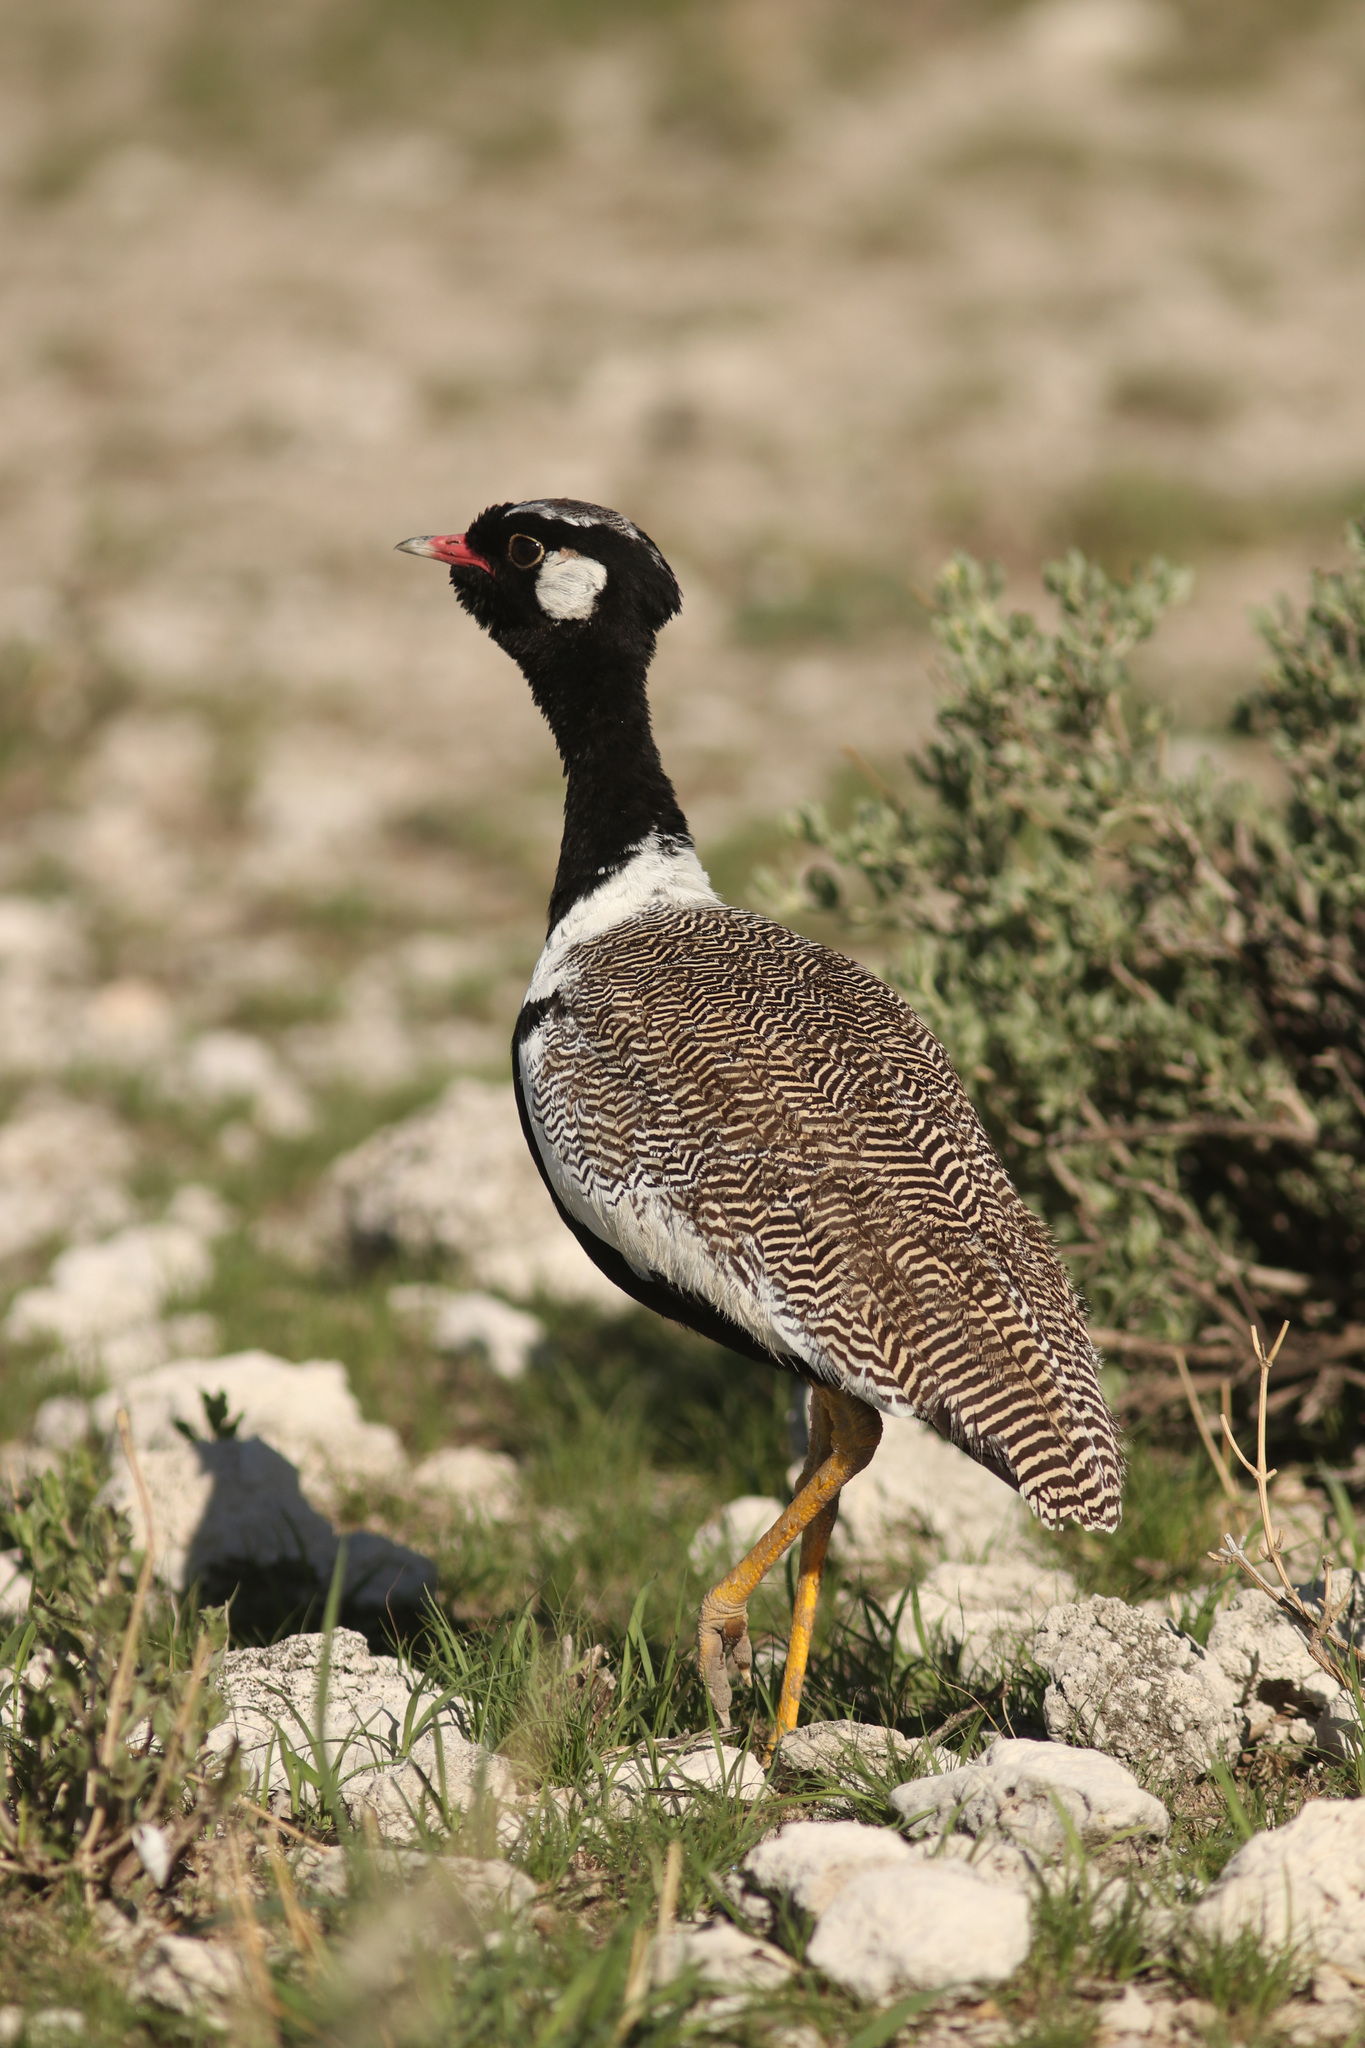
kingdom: Animalia
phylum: Chordata
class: Aves
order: Otidiformes
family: Otididae
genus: Afrotis
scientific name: Afrotis afraoides
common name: Northern black korhaan
